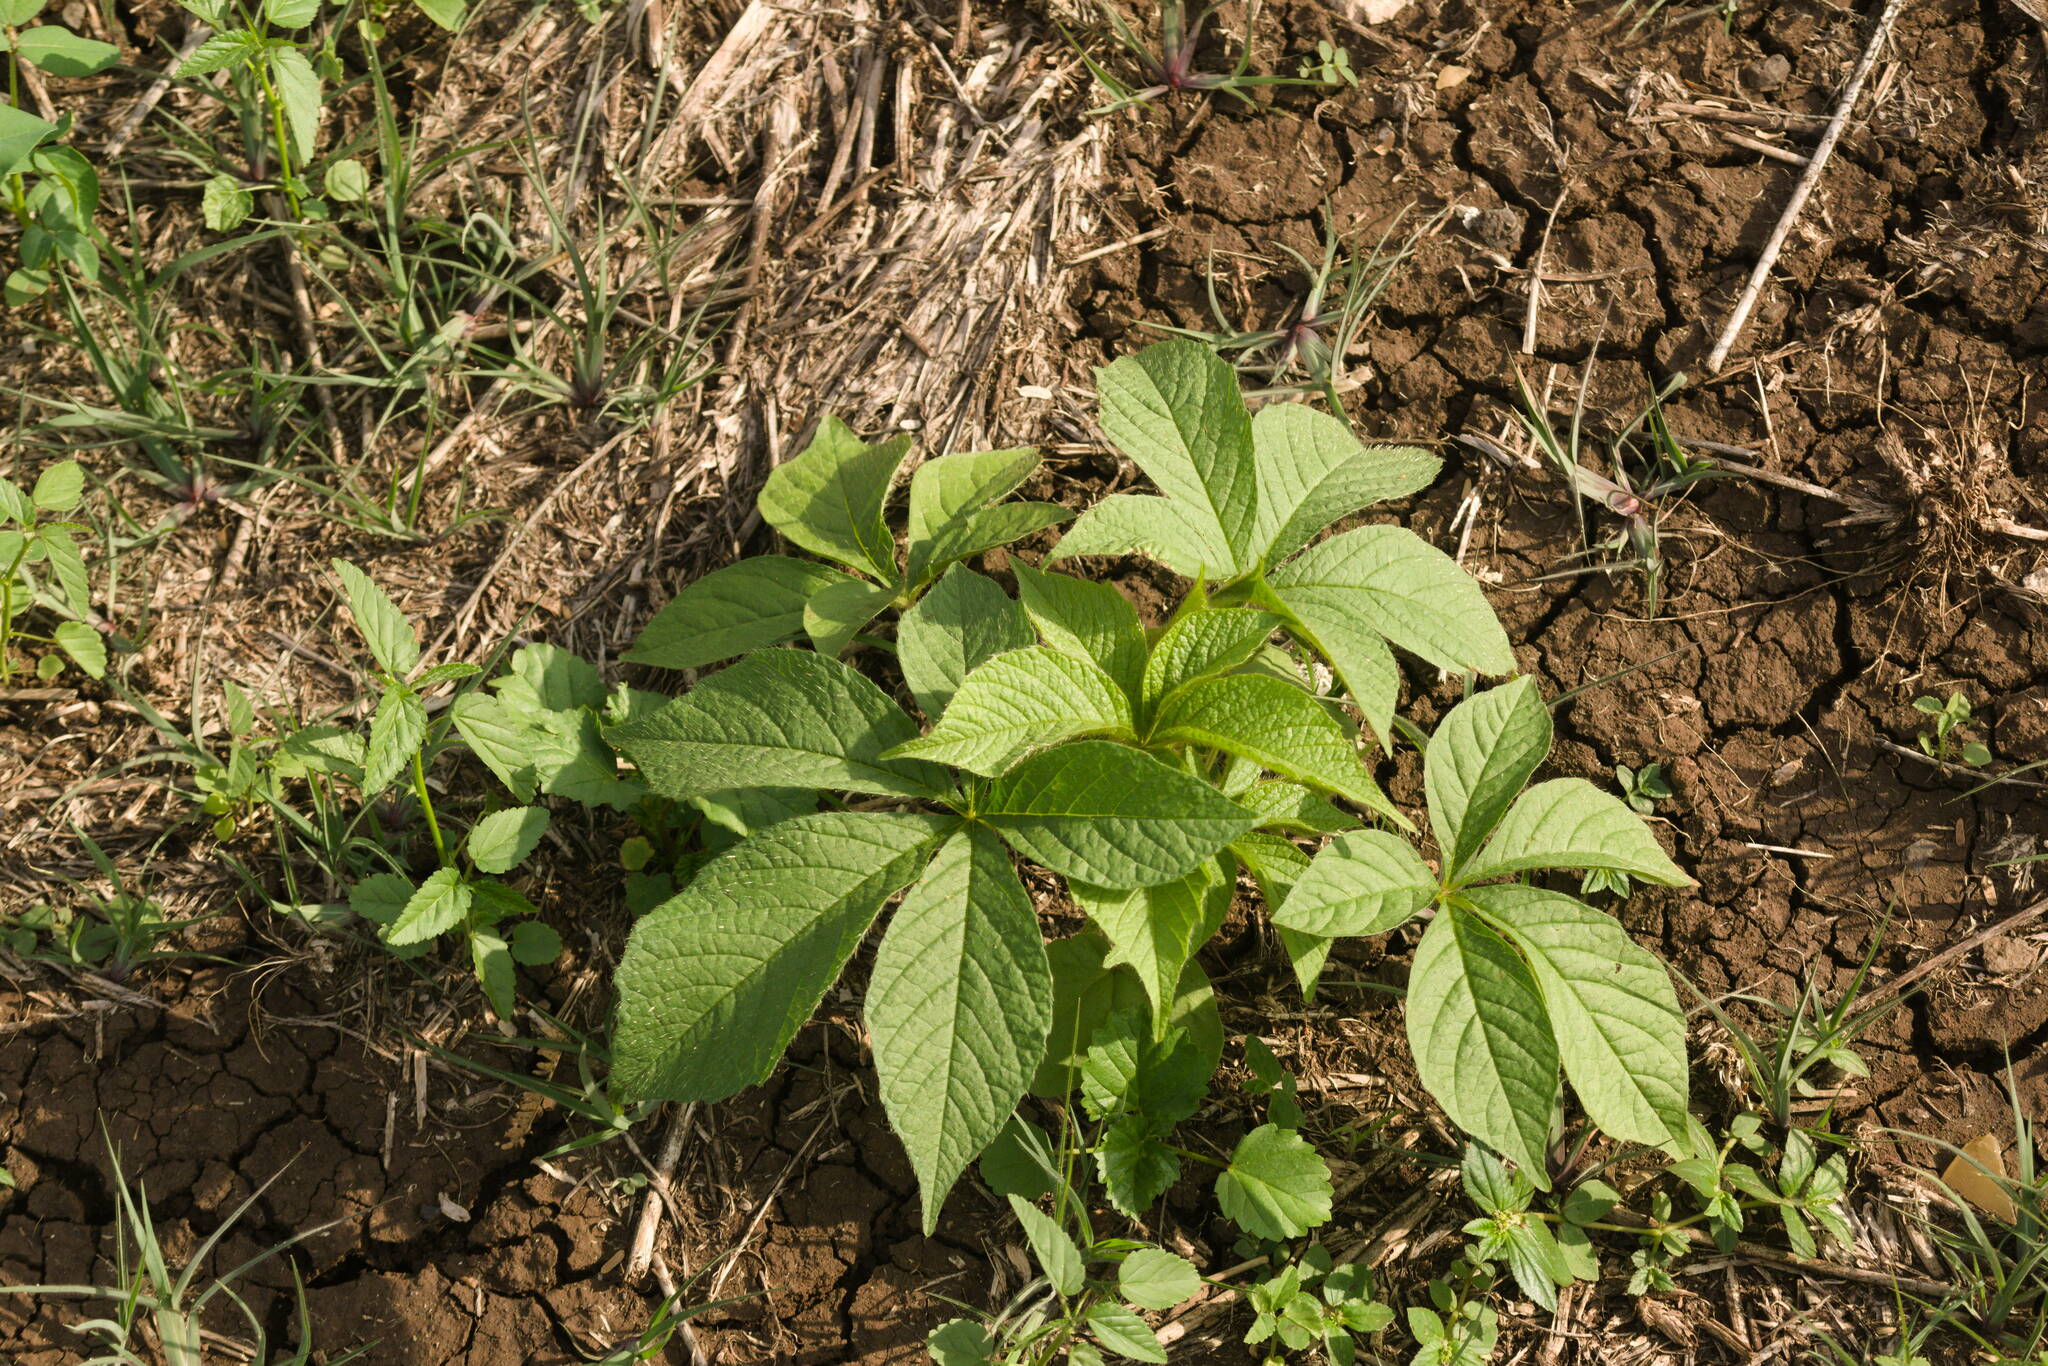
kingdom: Plantae
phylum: Tracheophyta
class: Magnoliopsida
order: Solanales
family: Convolvulaceae
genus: Distimake
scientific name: Distimake aegyptius
